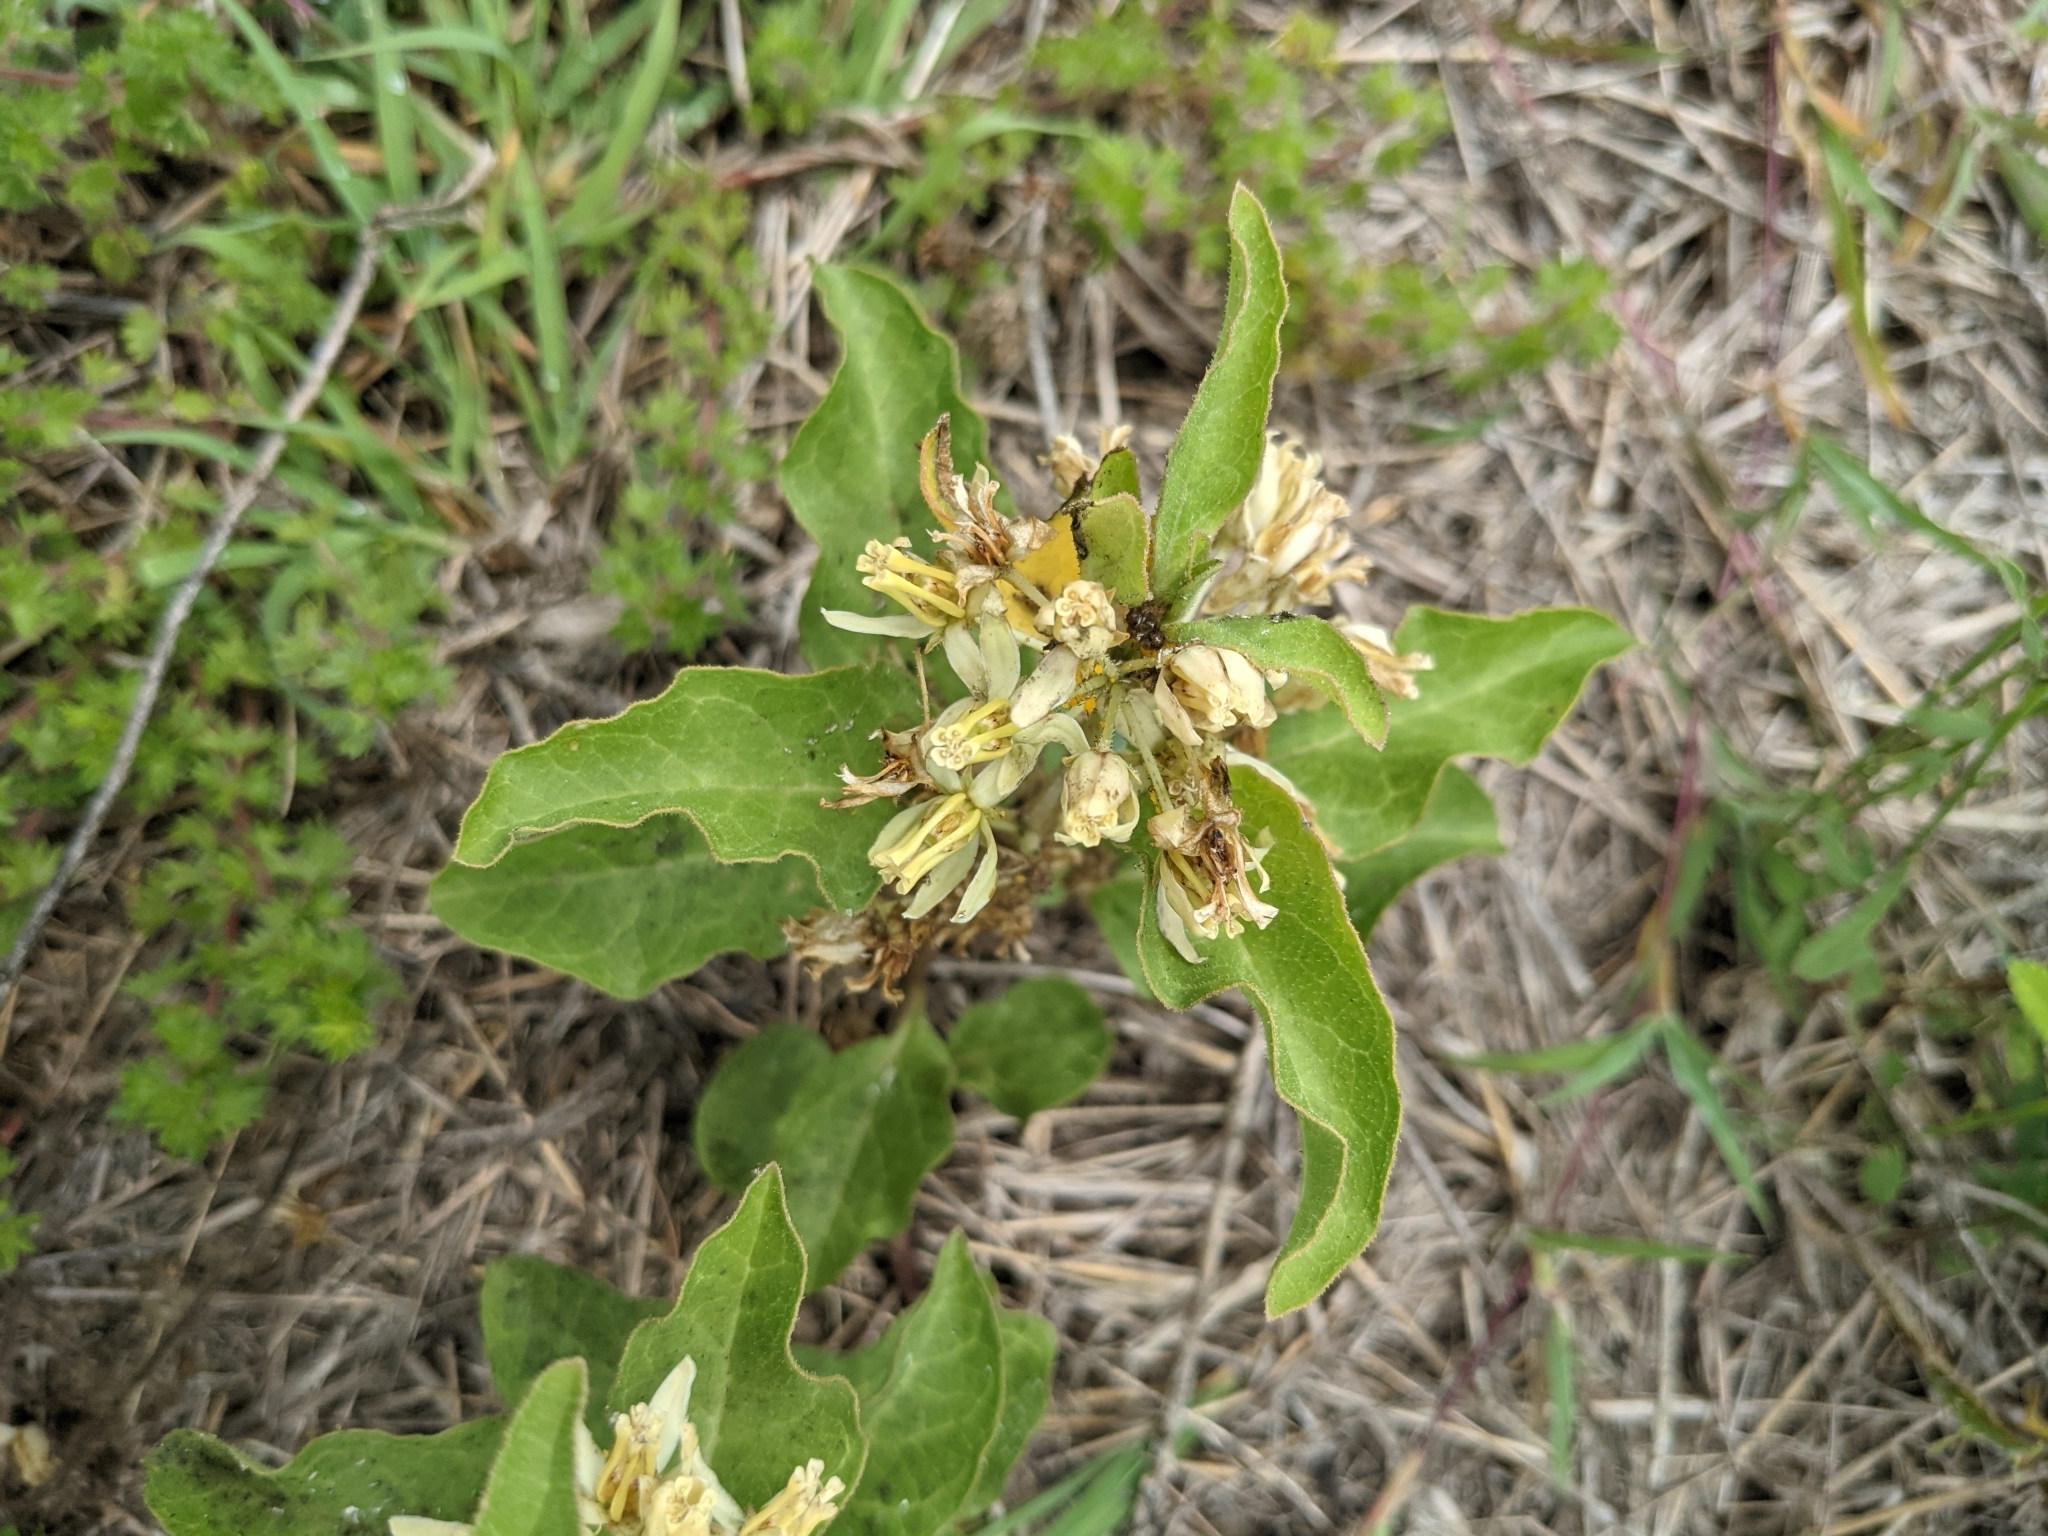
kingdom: Plantae
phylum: Tracheophyta
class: Magnoliopsida
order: Gentianales
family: Apocynaceae
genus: Asclepias
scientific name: Asclepias oenotheroides
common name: Zizotes milkweed
